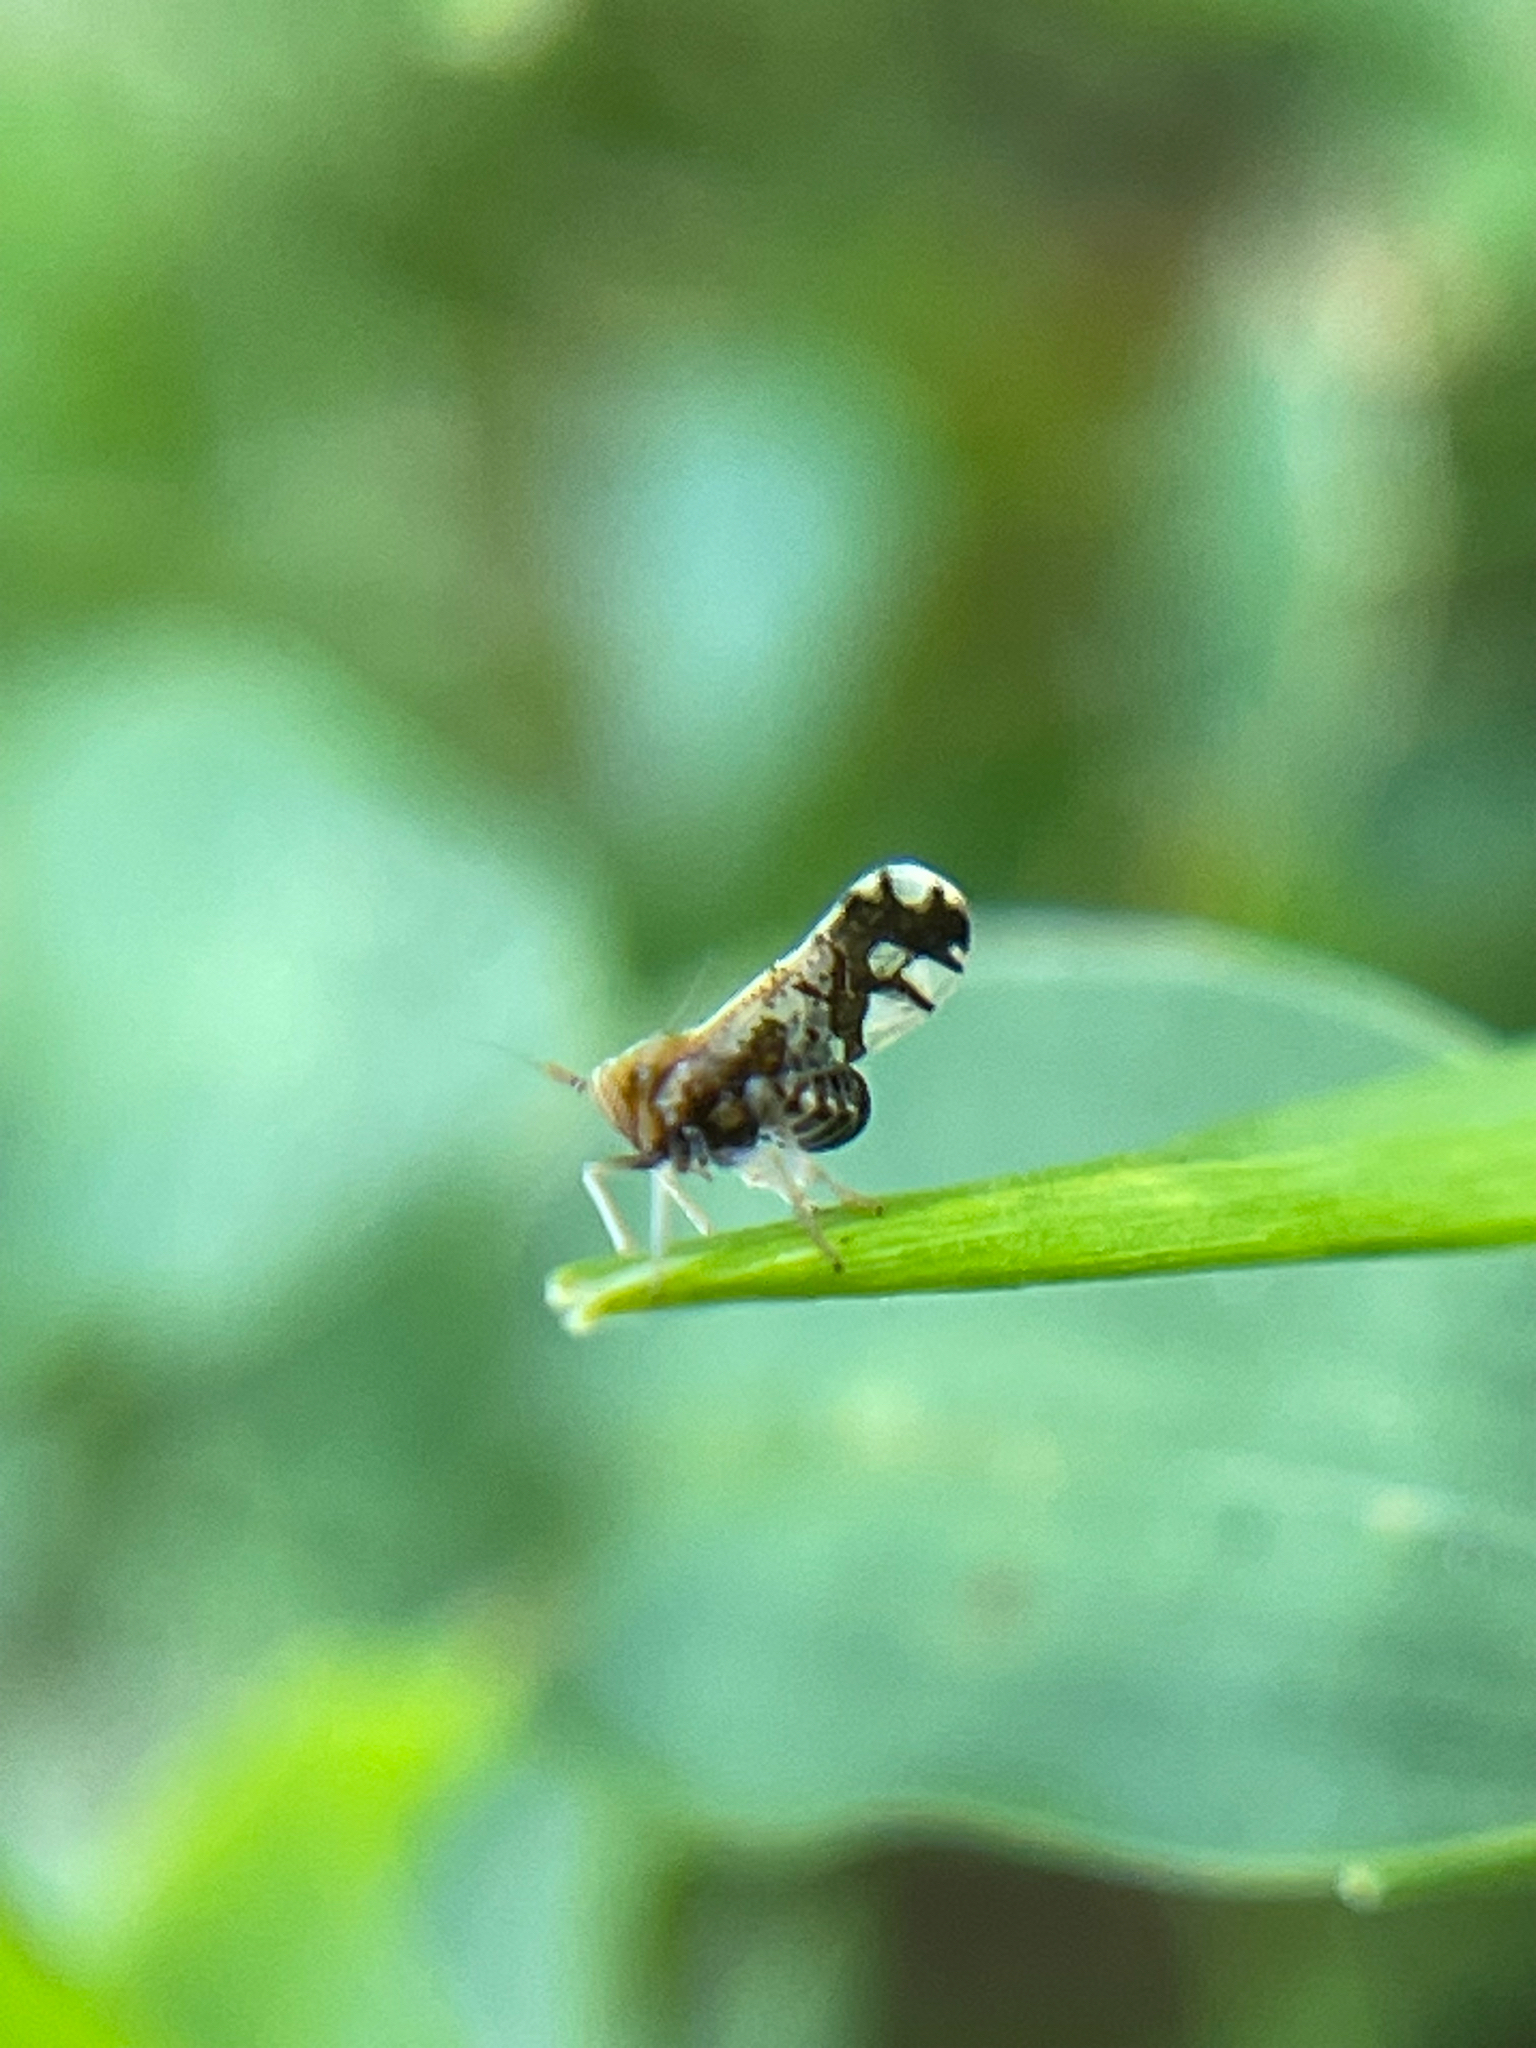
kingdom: Animalia
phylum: Arthropoda
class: Insecta
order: Hemiptera
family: Delphacidae
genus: Liburniella
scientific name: Liburniella ornata
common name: Ornate planthopper
